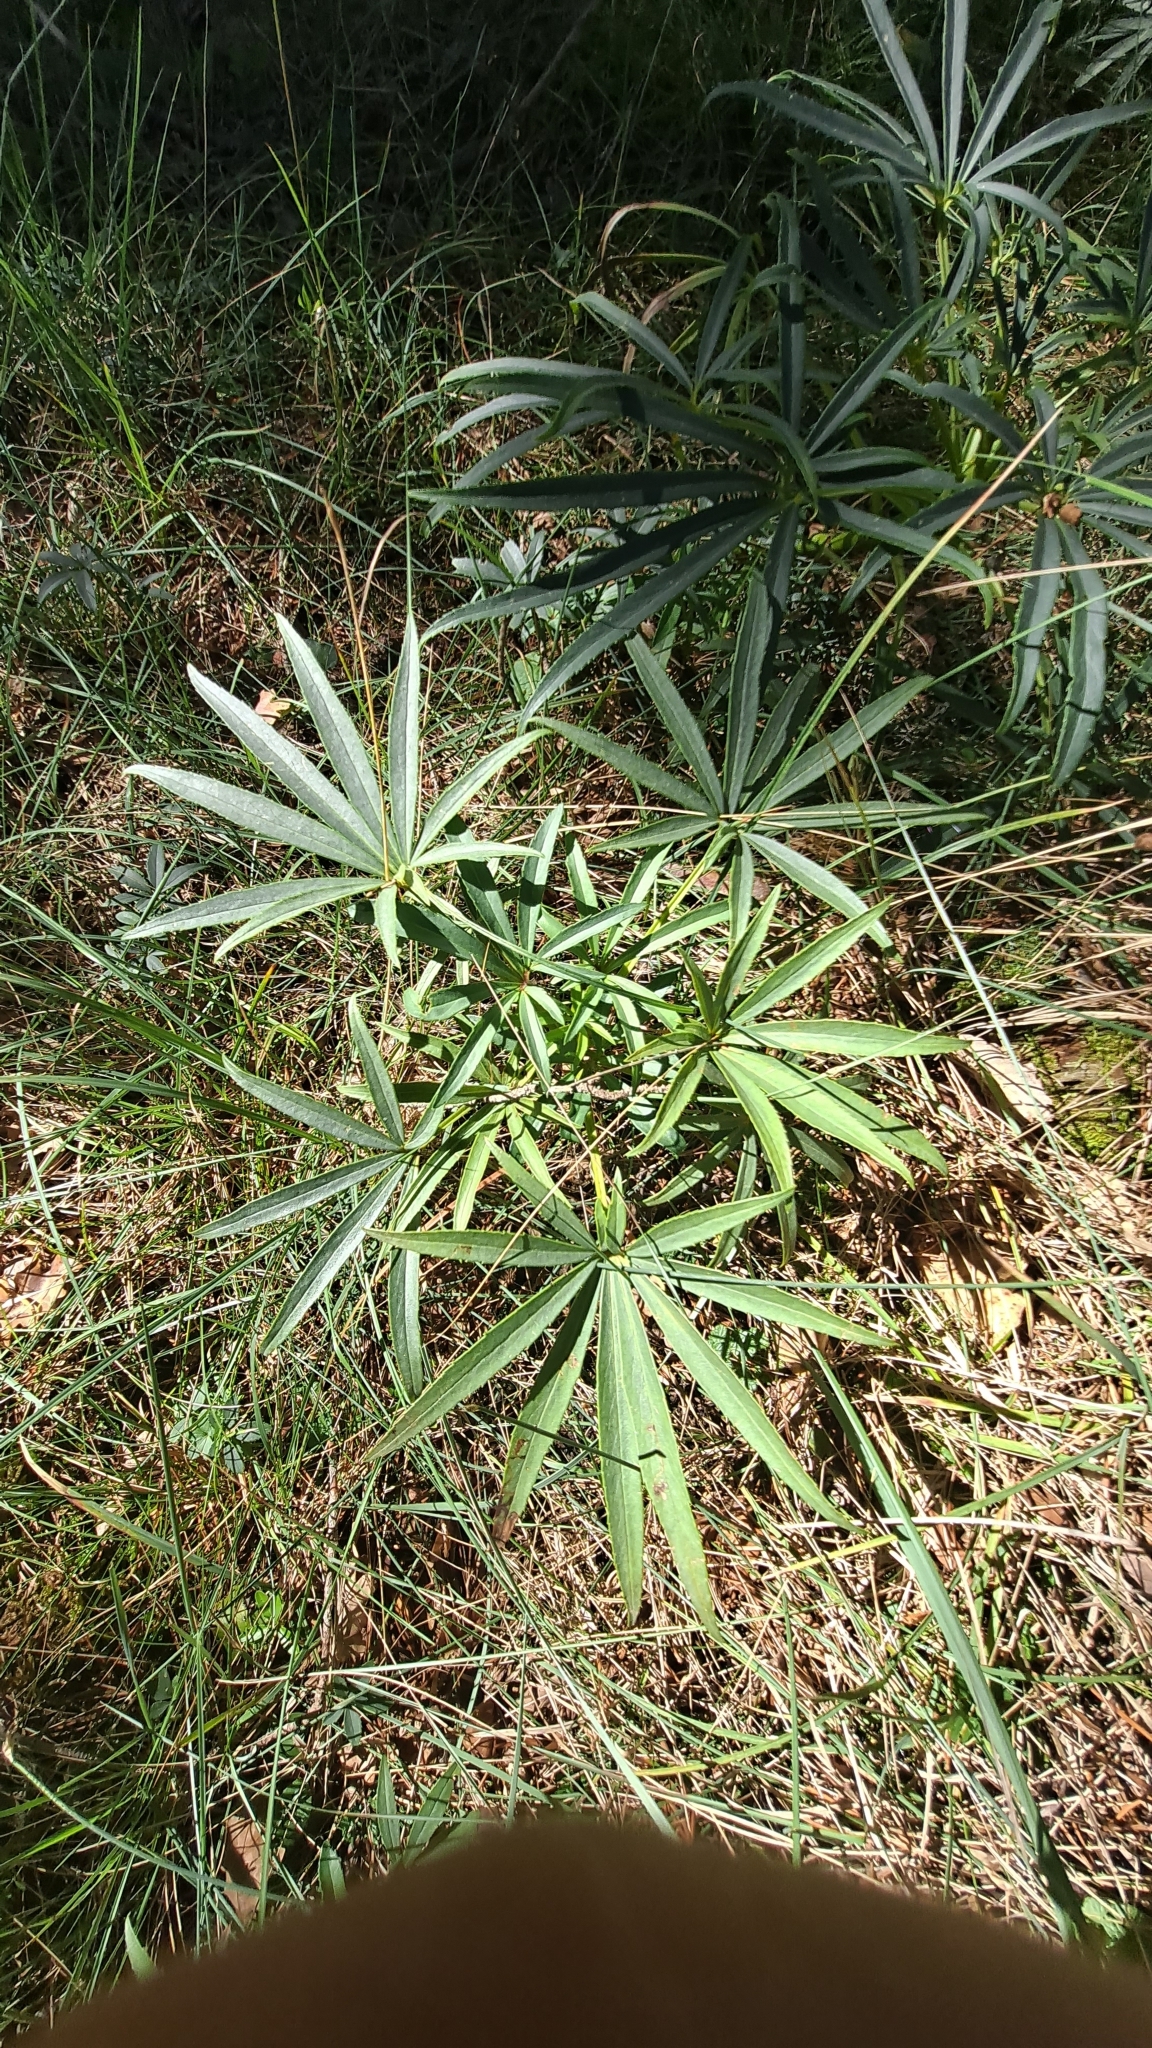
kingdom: Plantae
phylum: Tracheophyta
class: Magnoliopsida
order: Ranunculales
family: Ranunculaceae
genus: Helleborus
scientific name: Helleborus foetidus
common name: Stinking hellebore
